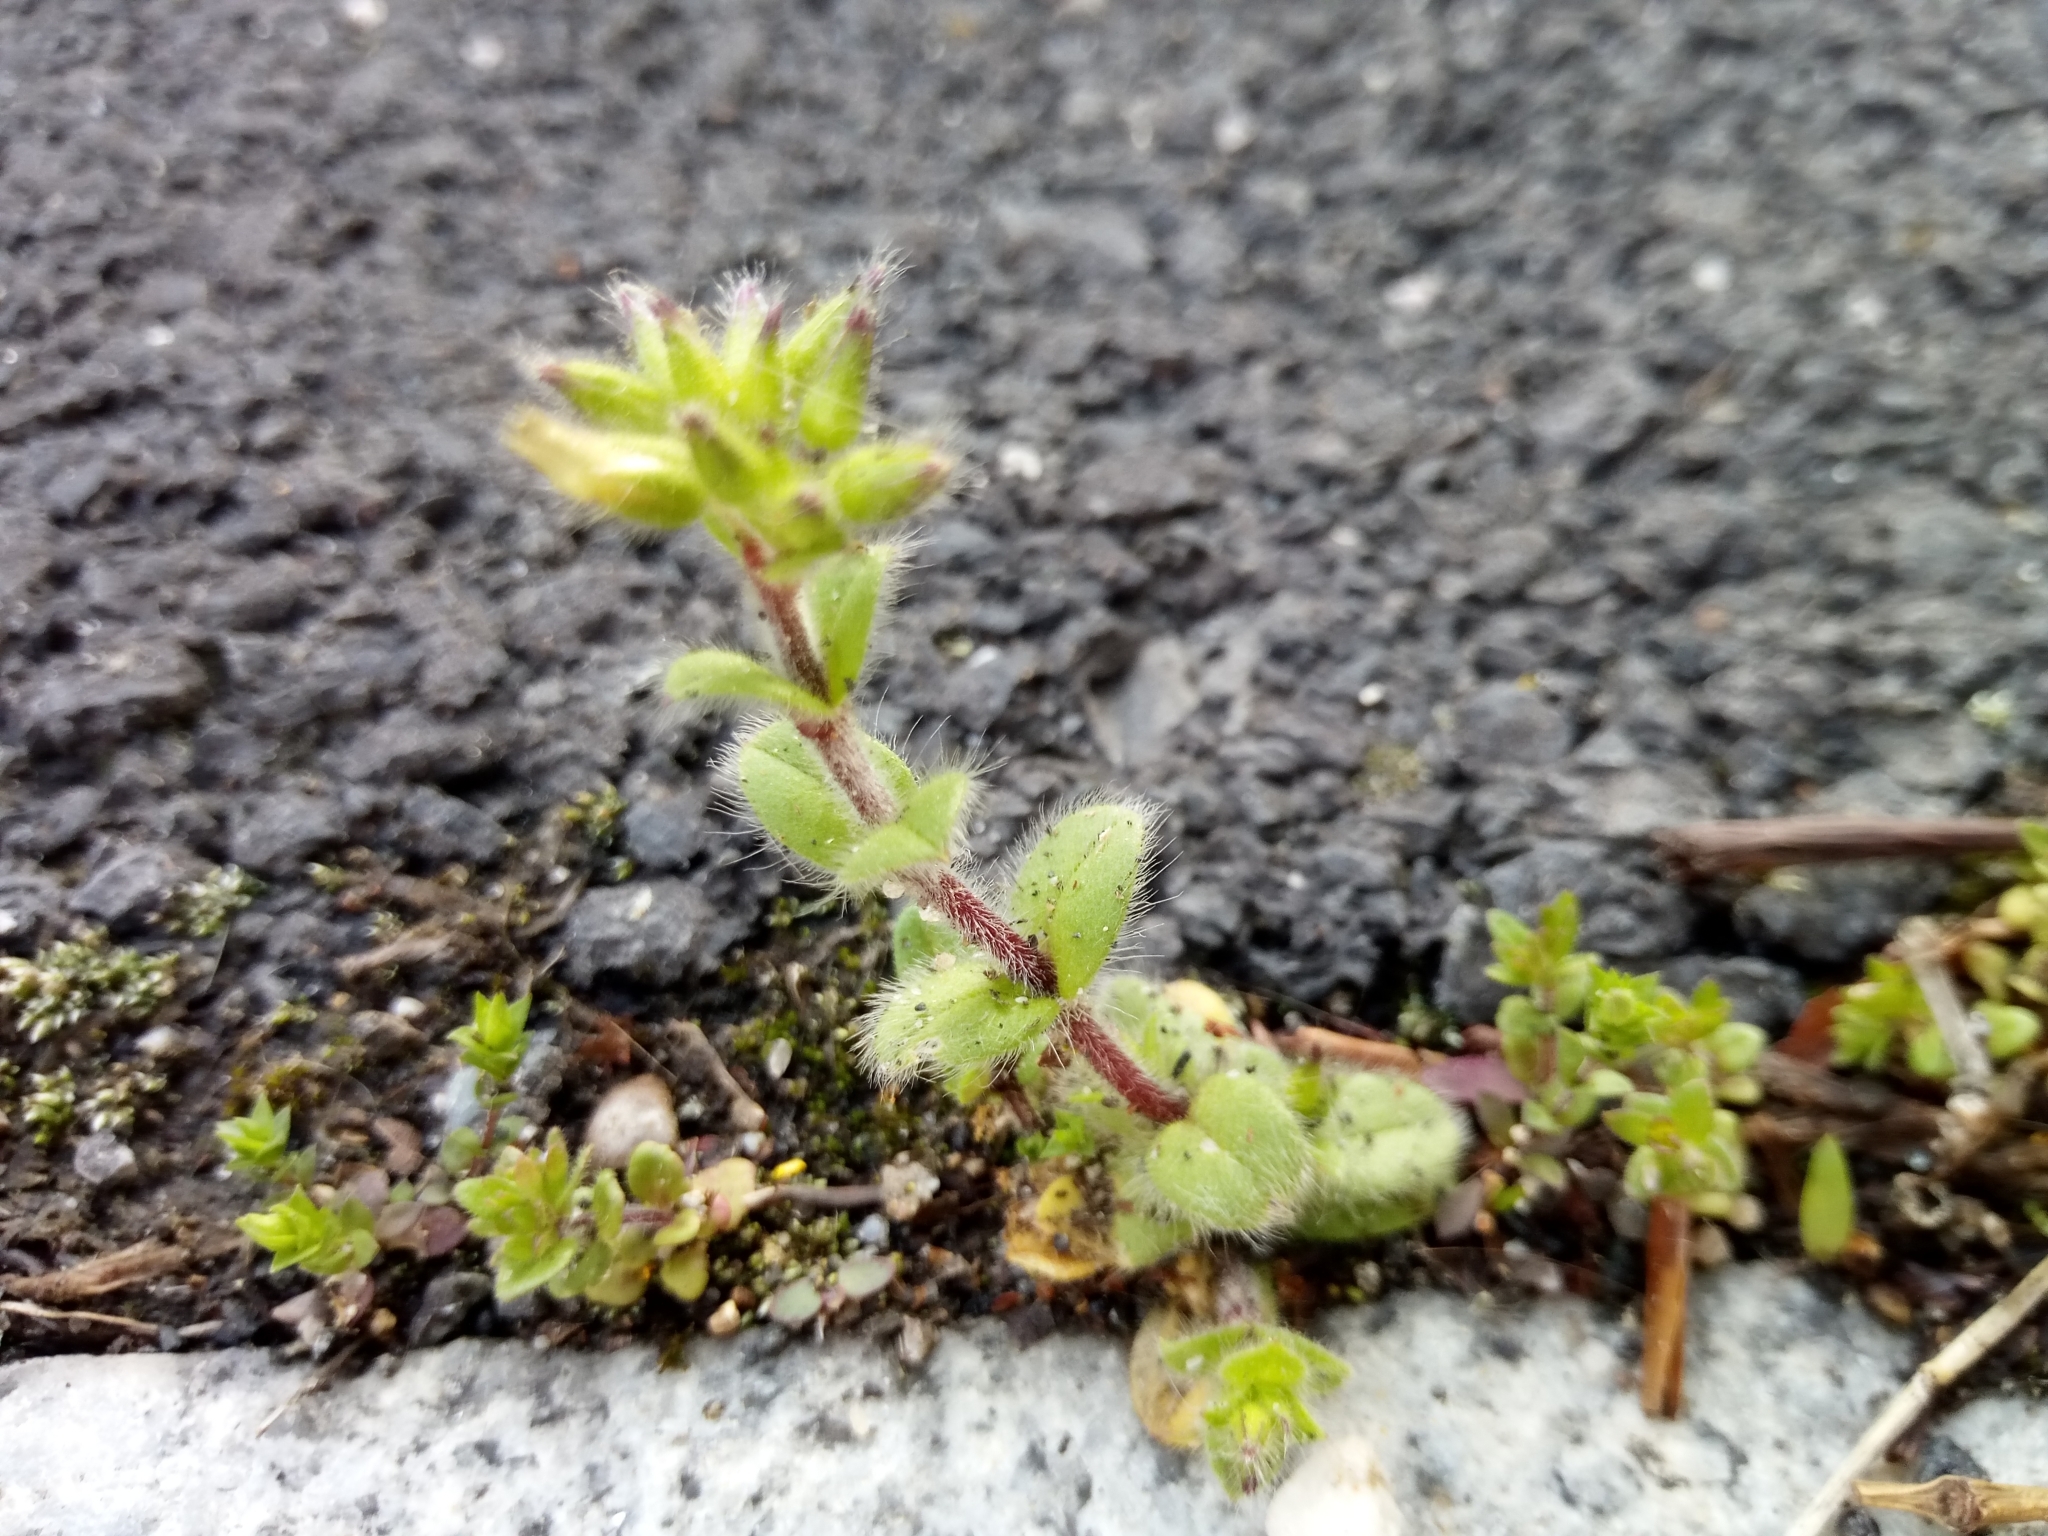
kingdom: Plantae
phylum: Tracheophyta
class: Magnoliopsida
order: Caryophyllales
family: Caryophyllaceae
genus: Cerastium
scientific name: Cerastium glomeratum
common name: Sticky chickweed
